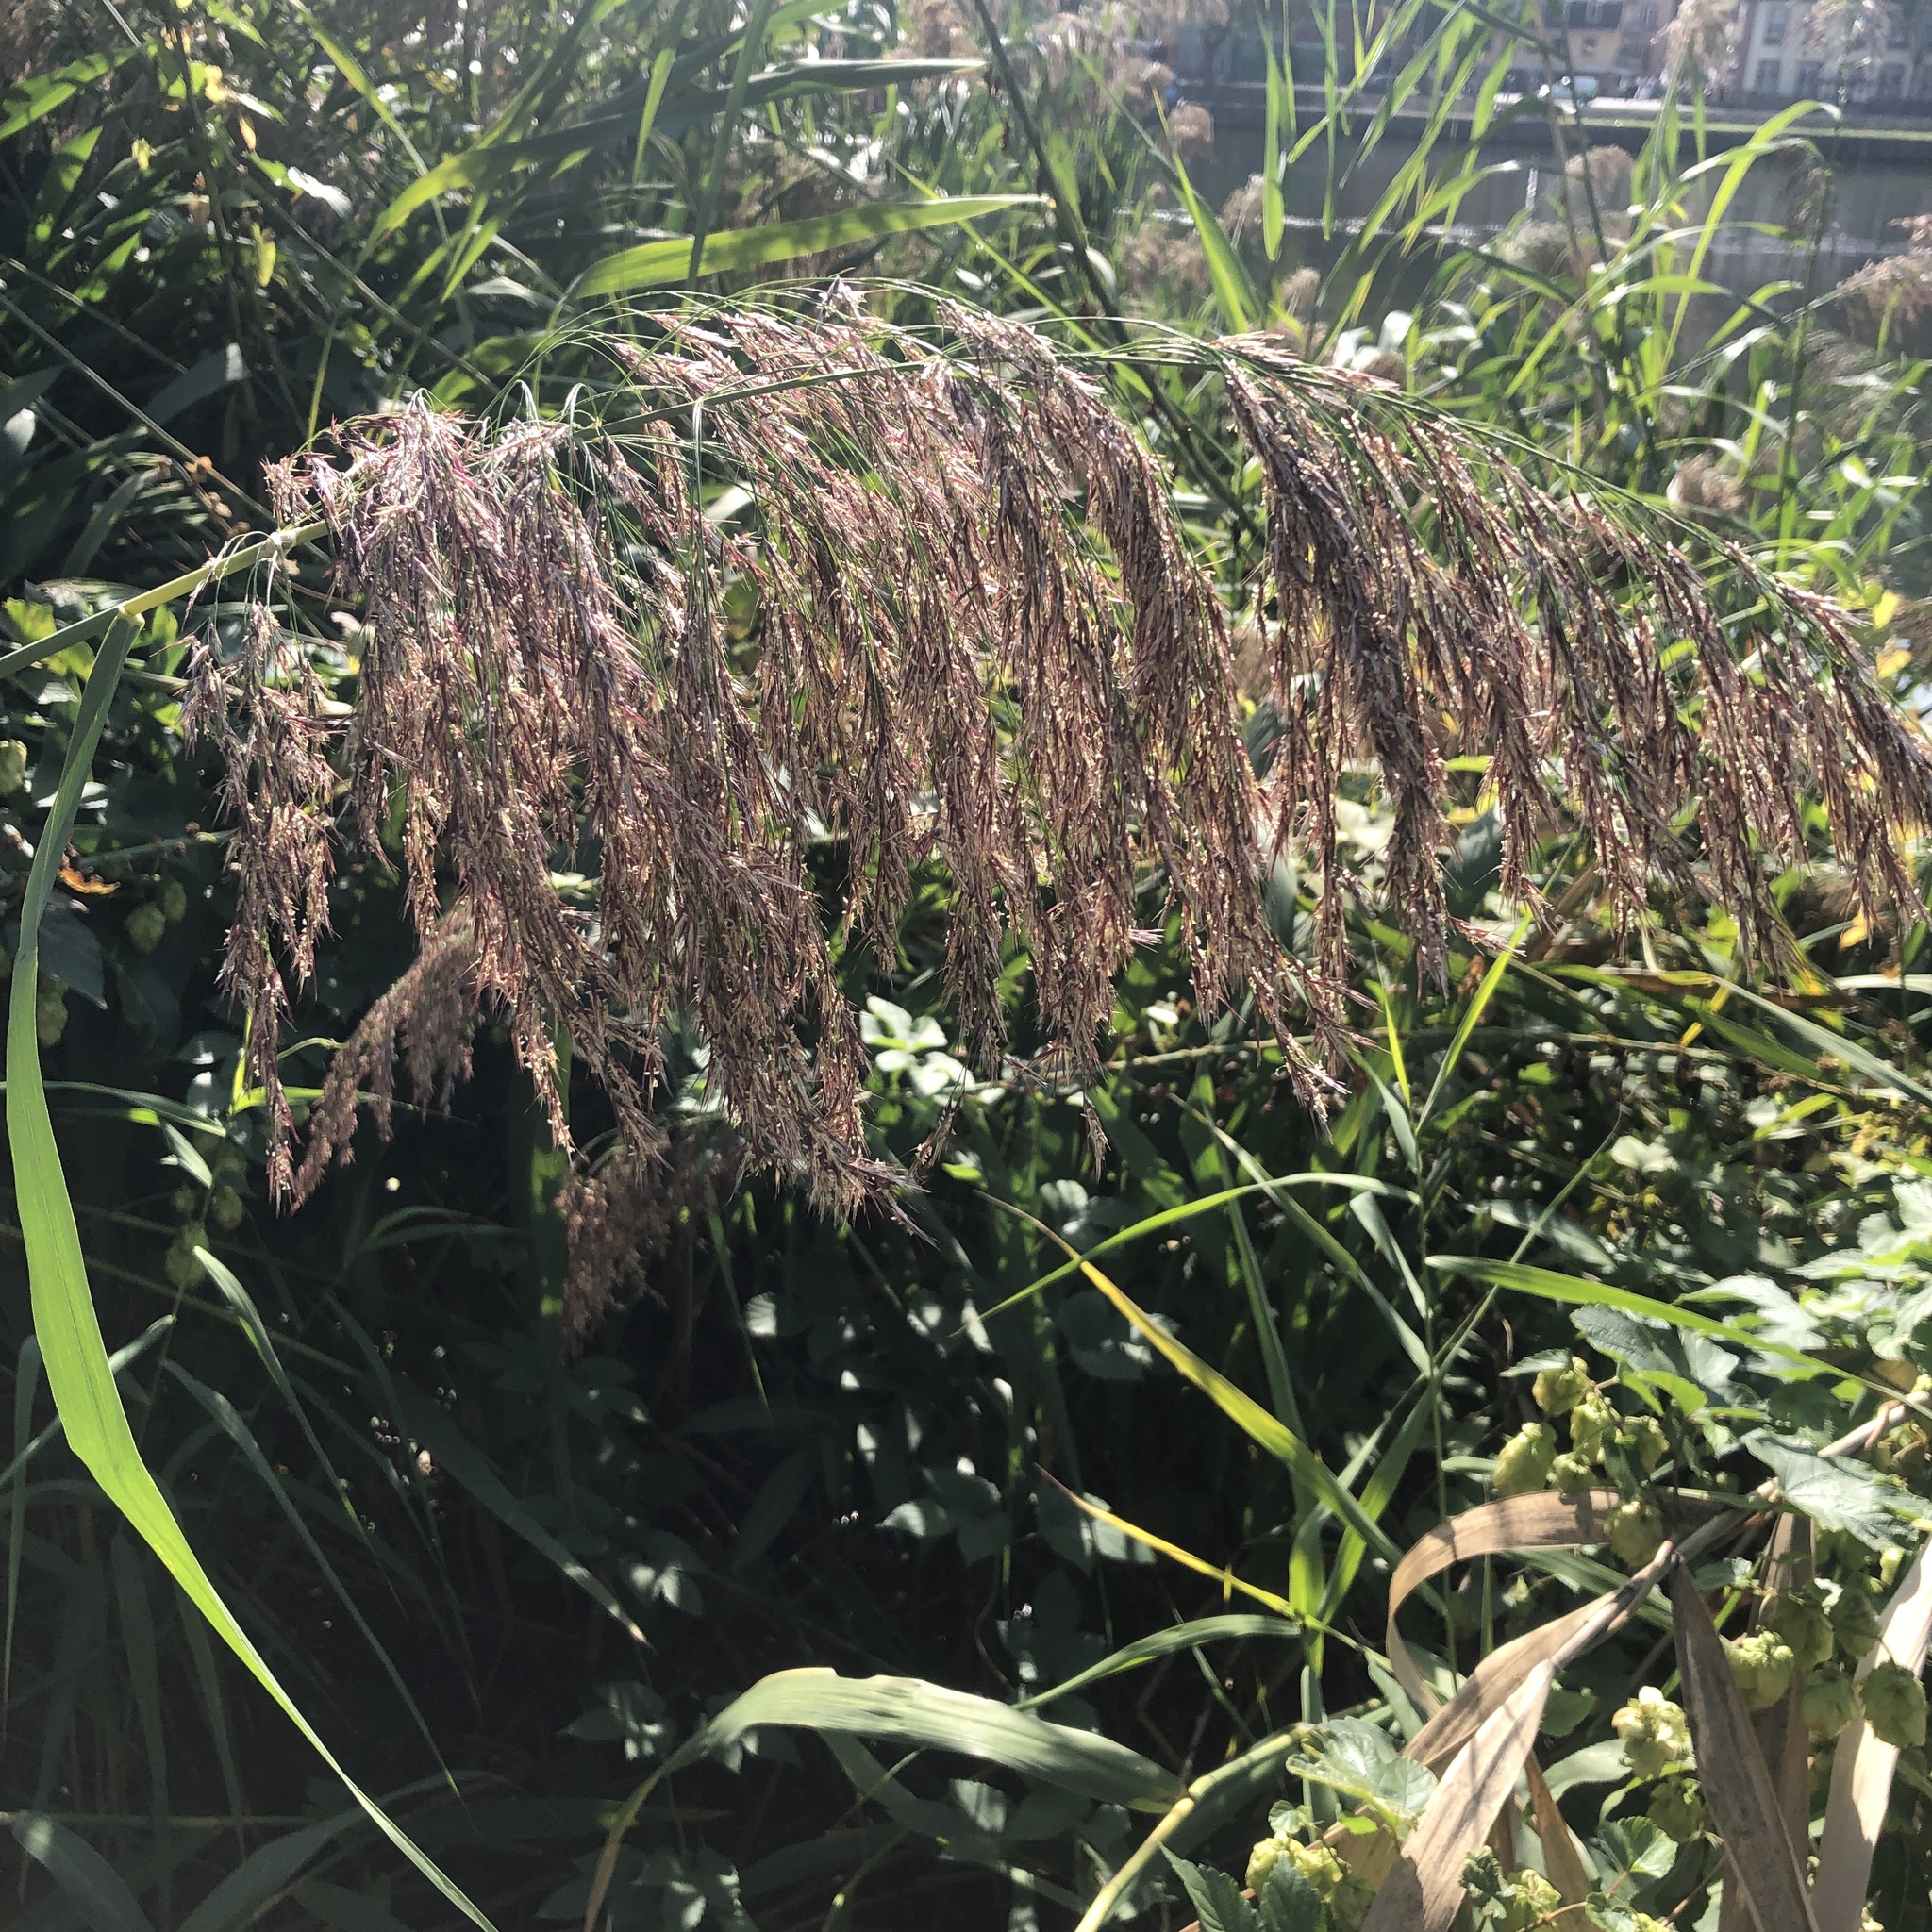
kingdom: Plantae
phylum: Tracheophyta
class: Liliopsida
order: Poales
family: Poaceae
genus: Phragmites
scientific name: Phragmites australis
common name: Common reed
